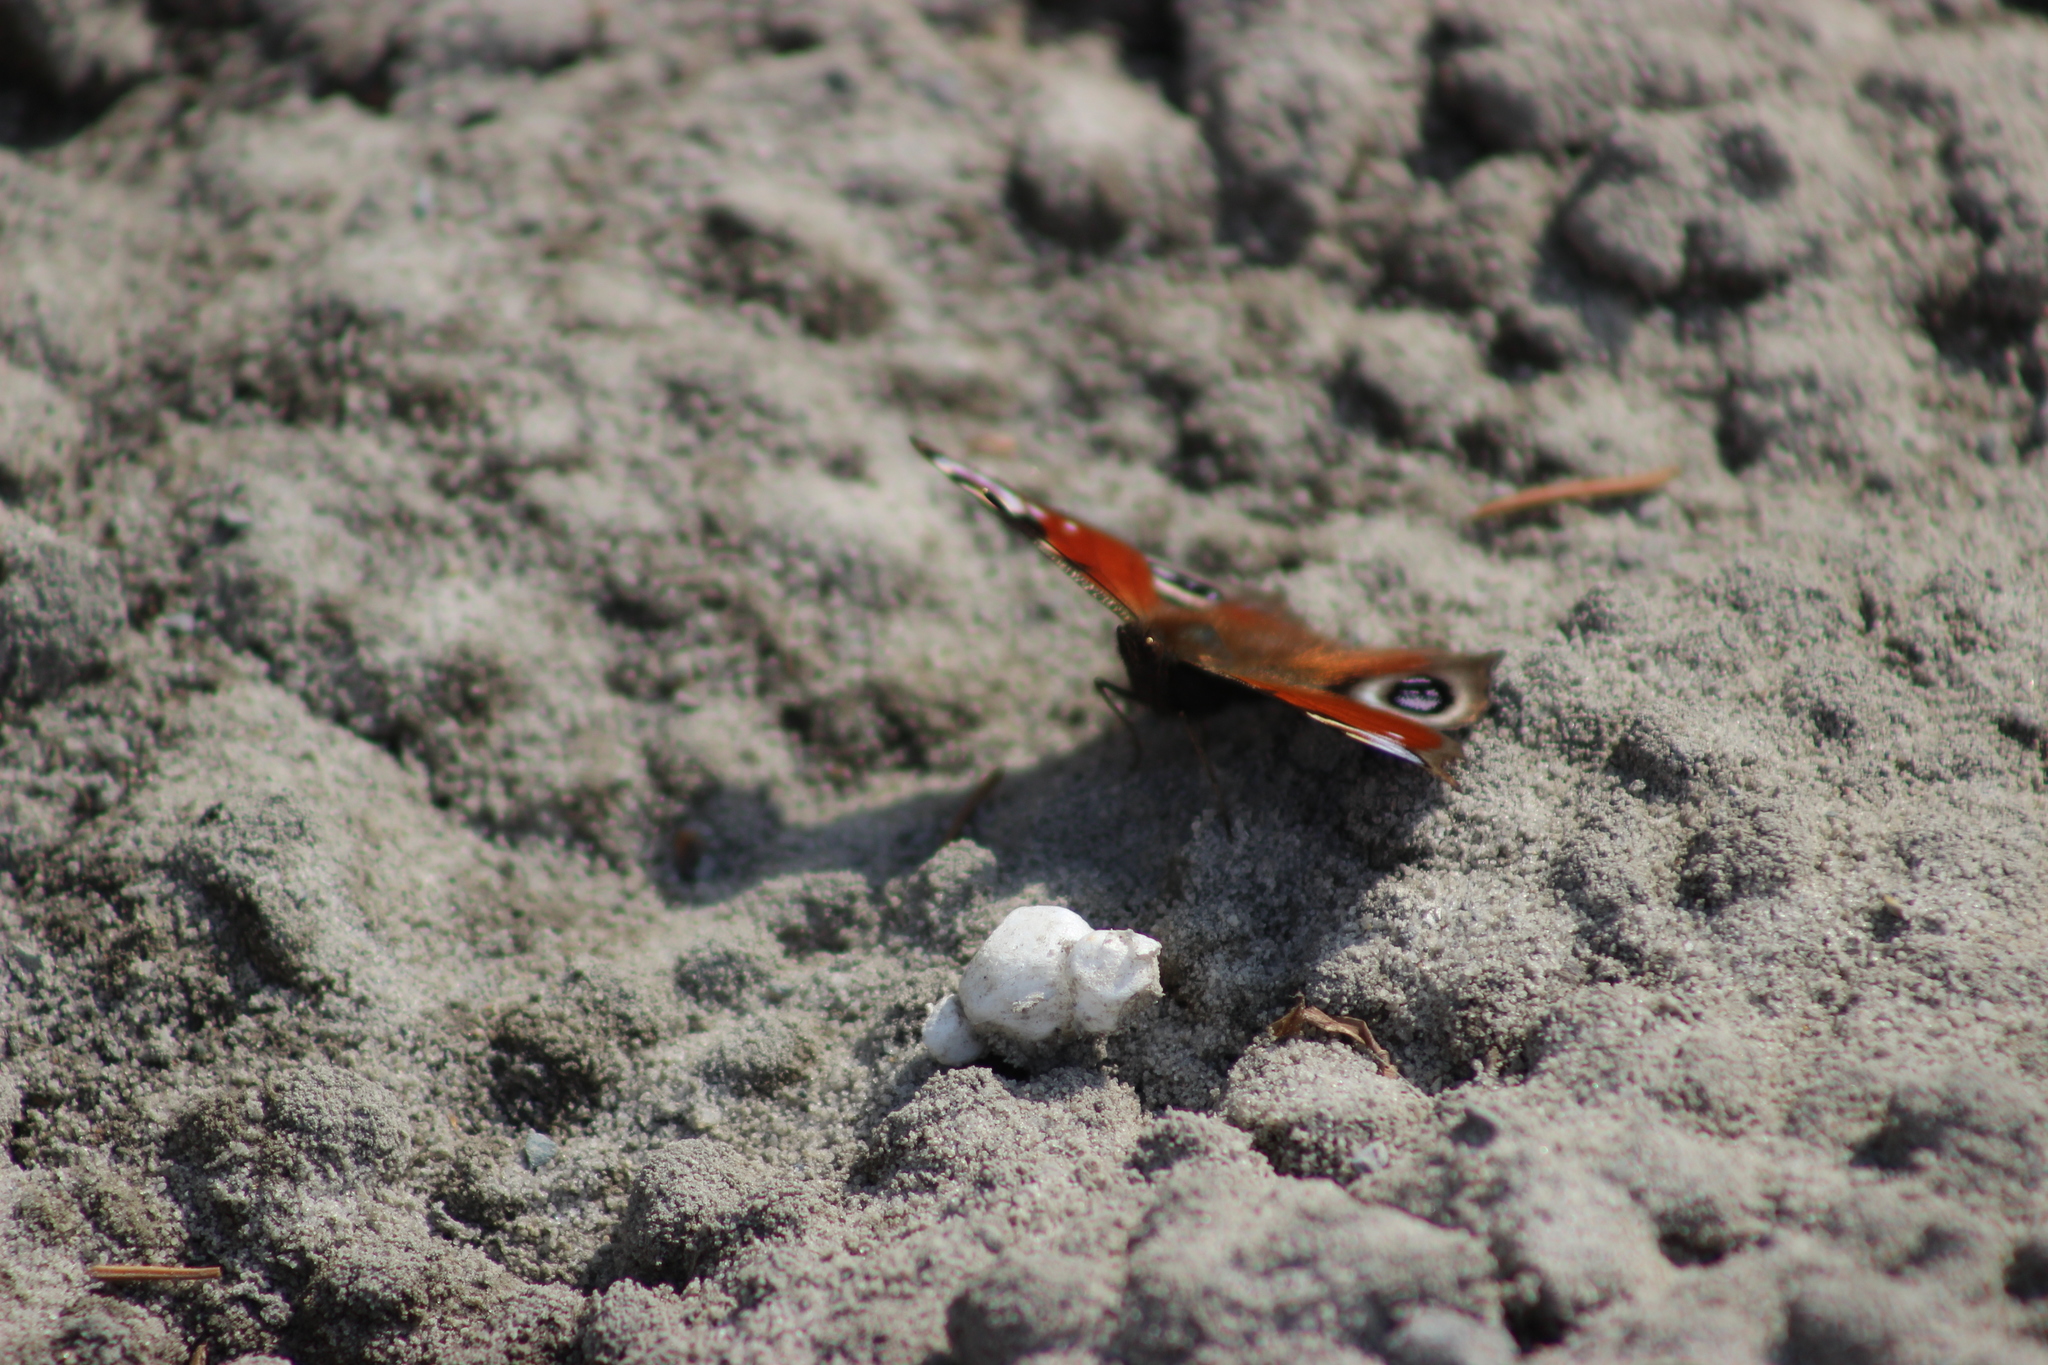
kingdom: Animalia
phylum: Arthropoda
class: Insecta
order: Lepidoptera
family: Nymphalidae
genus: Aglais
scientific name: Aglais io
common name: Peacock
